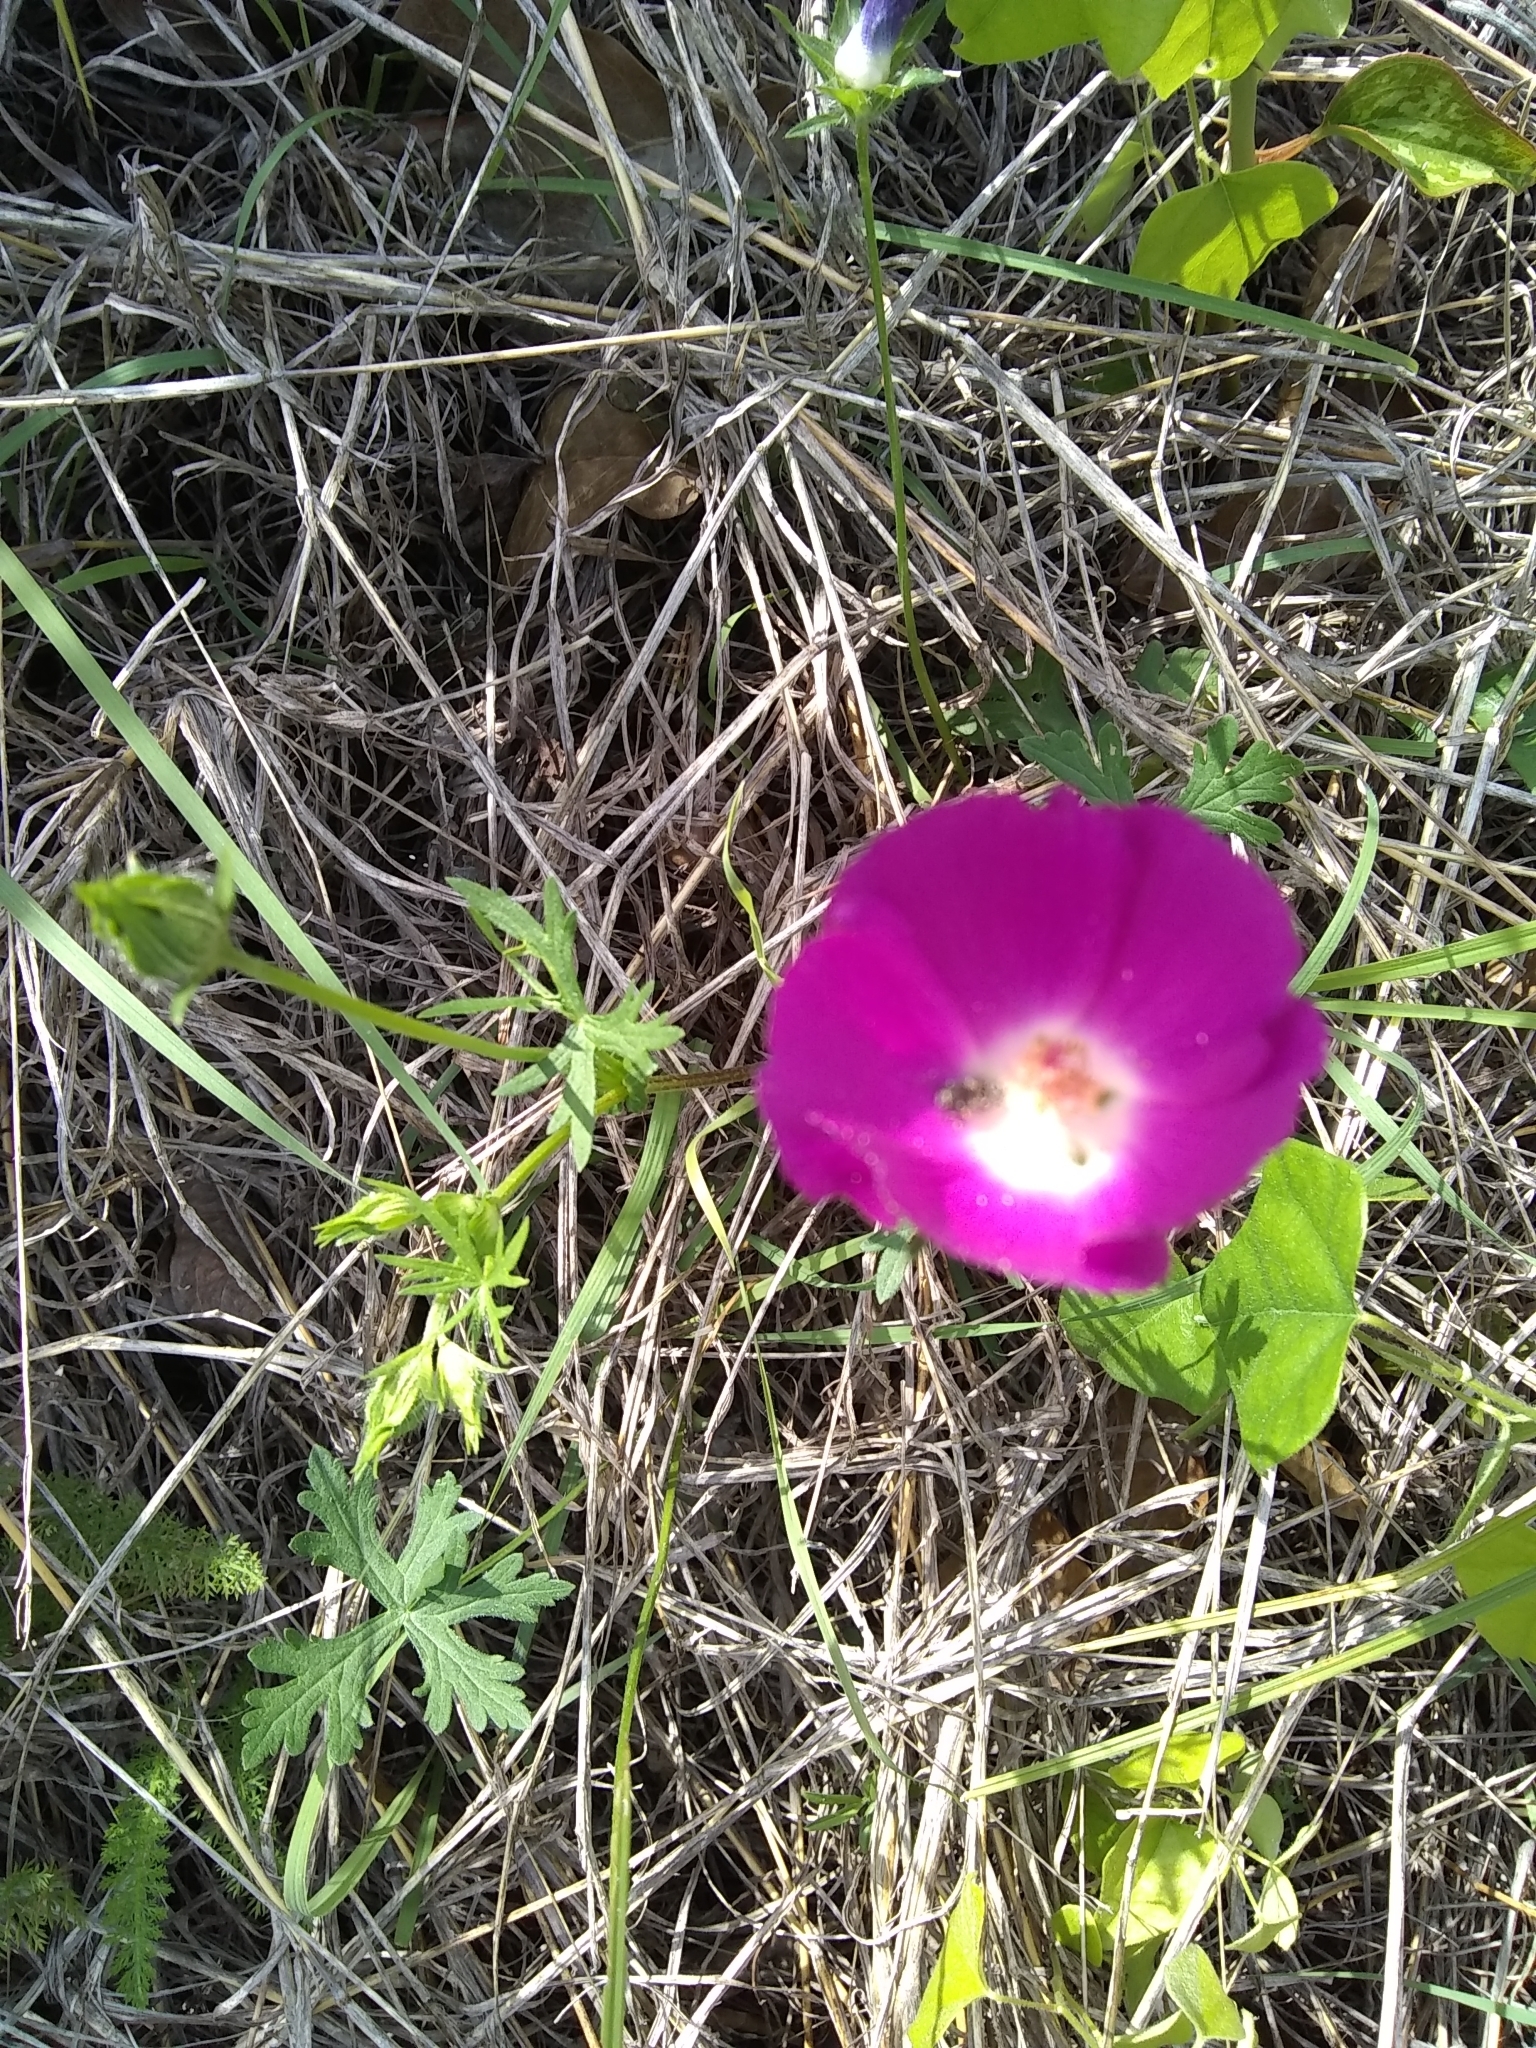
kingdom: Plantae
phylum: Tracheophyta
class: Magnoliopsida
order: Malvales
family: Malvaceae
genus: Callirhoe
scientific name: Callirhoe involucrata
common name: Purple poppy-mallow
